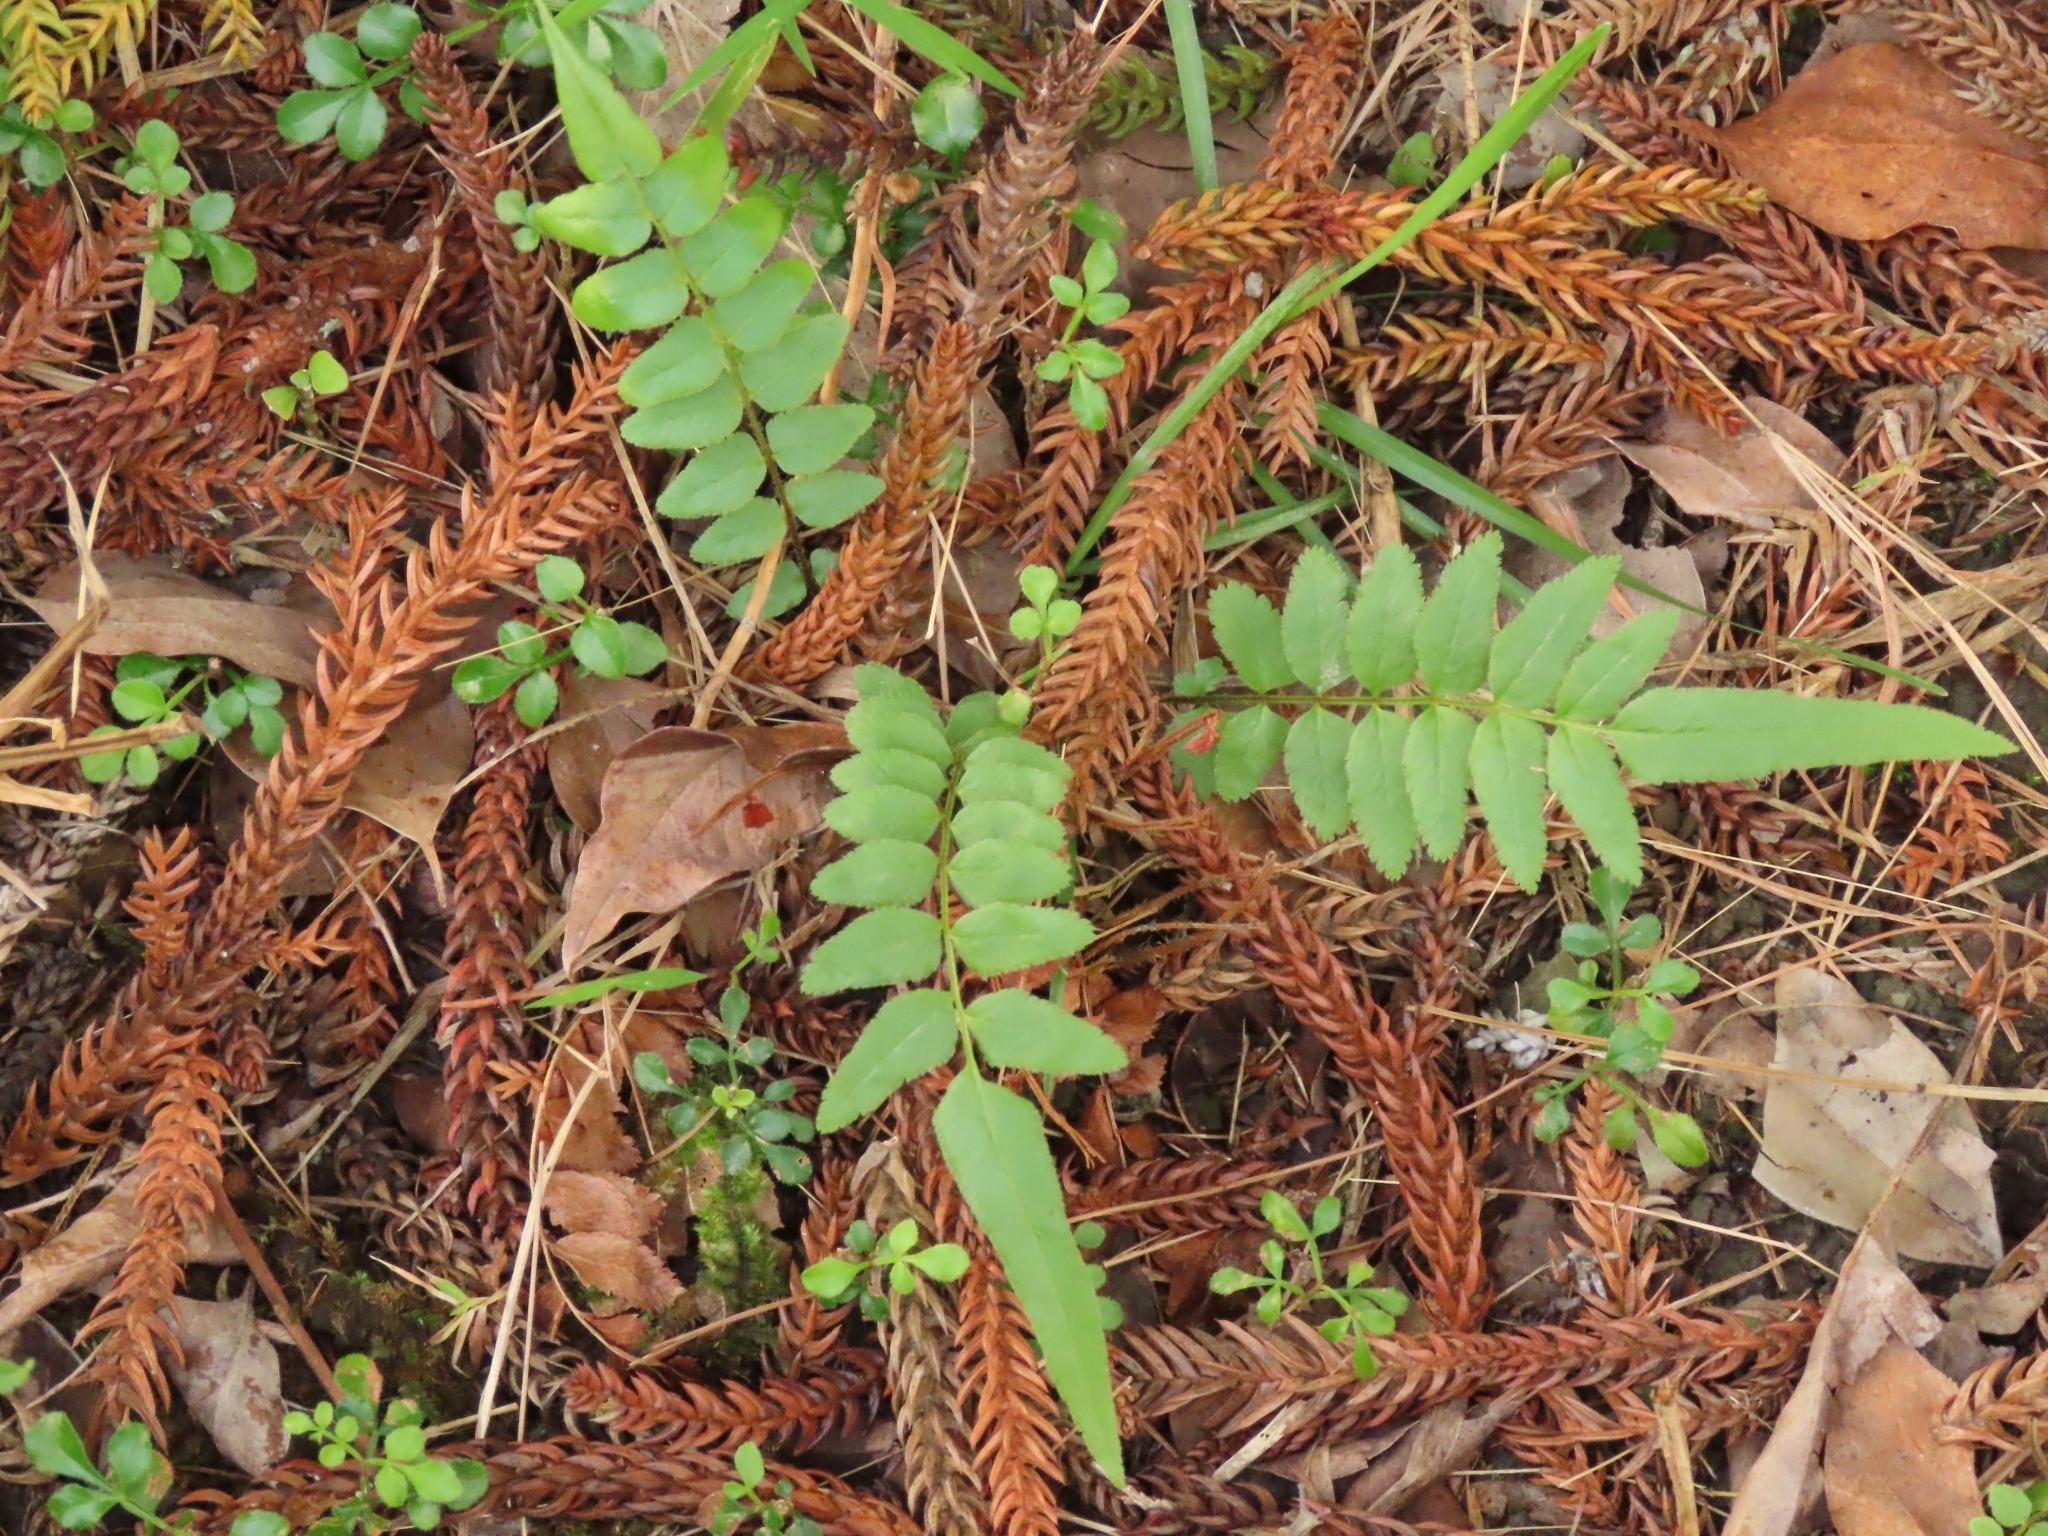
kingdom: Plantae
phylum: Tracheophyta
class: Polypodiopsida
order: Polypodiales
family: Pteridaceae
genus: Pteris
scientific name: Pteris vittata
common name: Ladder brake
